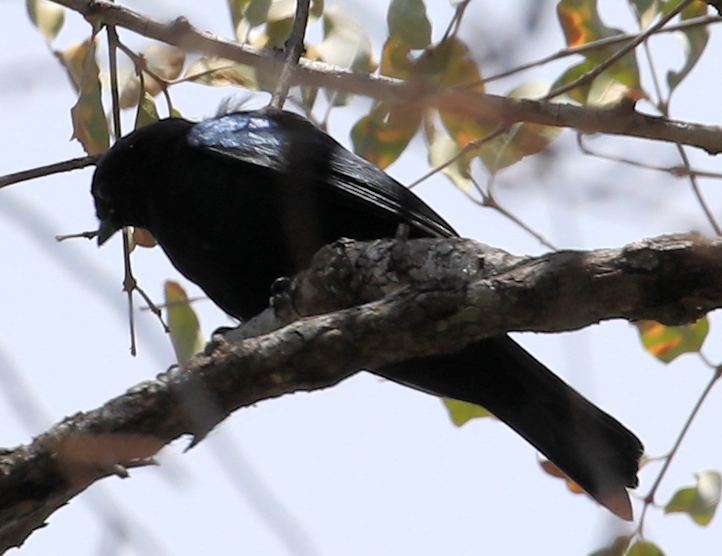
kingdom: Animalia
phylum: Chordata
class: Aves
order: Passeriformes
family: Muscicapidae
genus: Melaenornis
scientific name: Melaenornis pammelaina
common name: Southern black flycatcher
